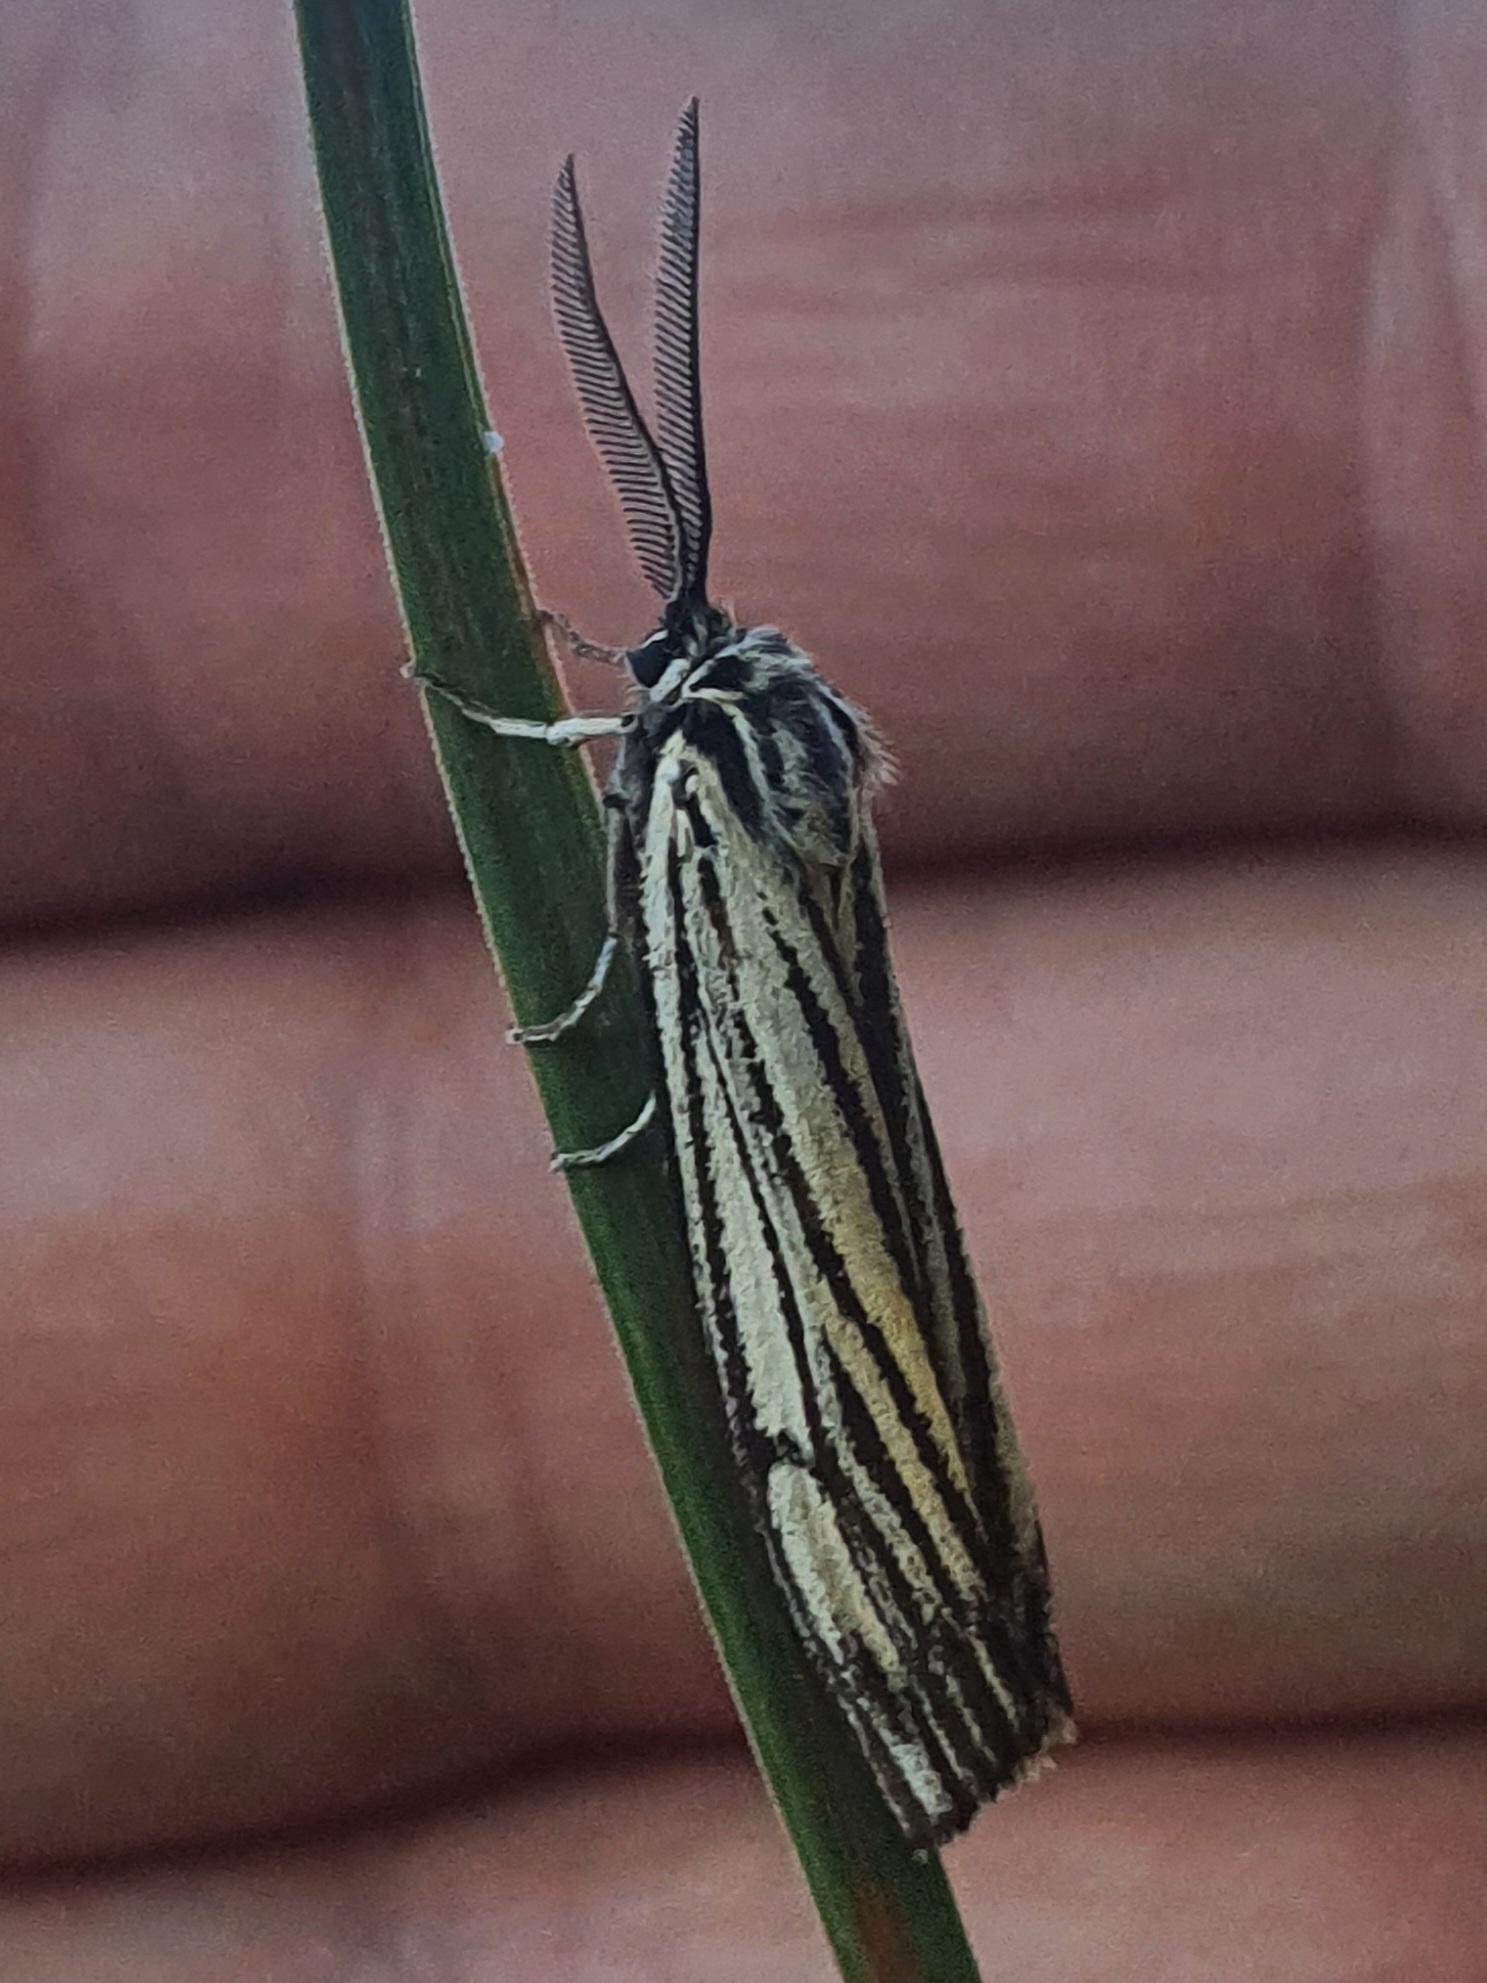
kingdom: Animalia
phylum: Arthropoda
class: Insecta
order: Lepidoptera
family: Erebidae
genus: Coscinia
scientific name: Coscinia Spiris striata
